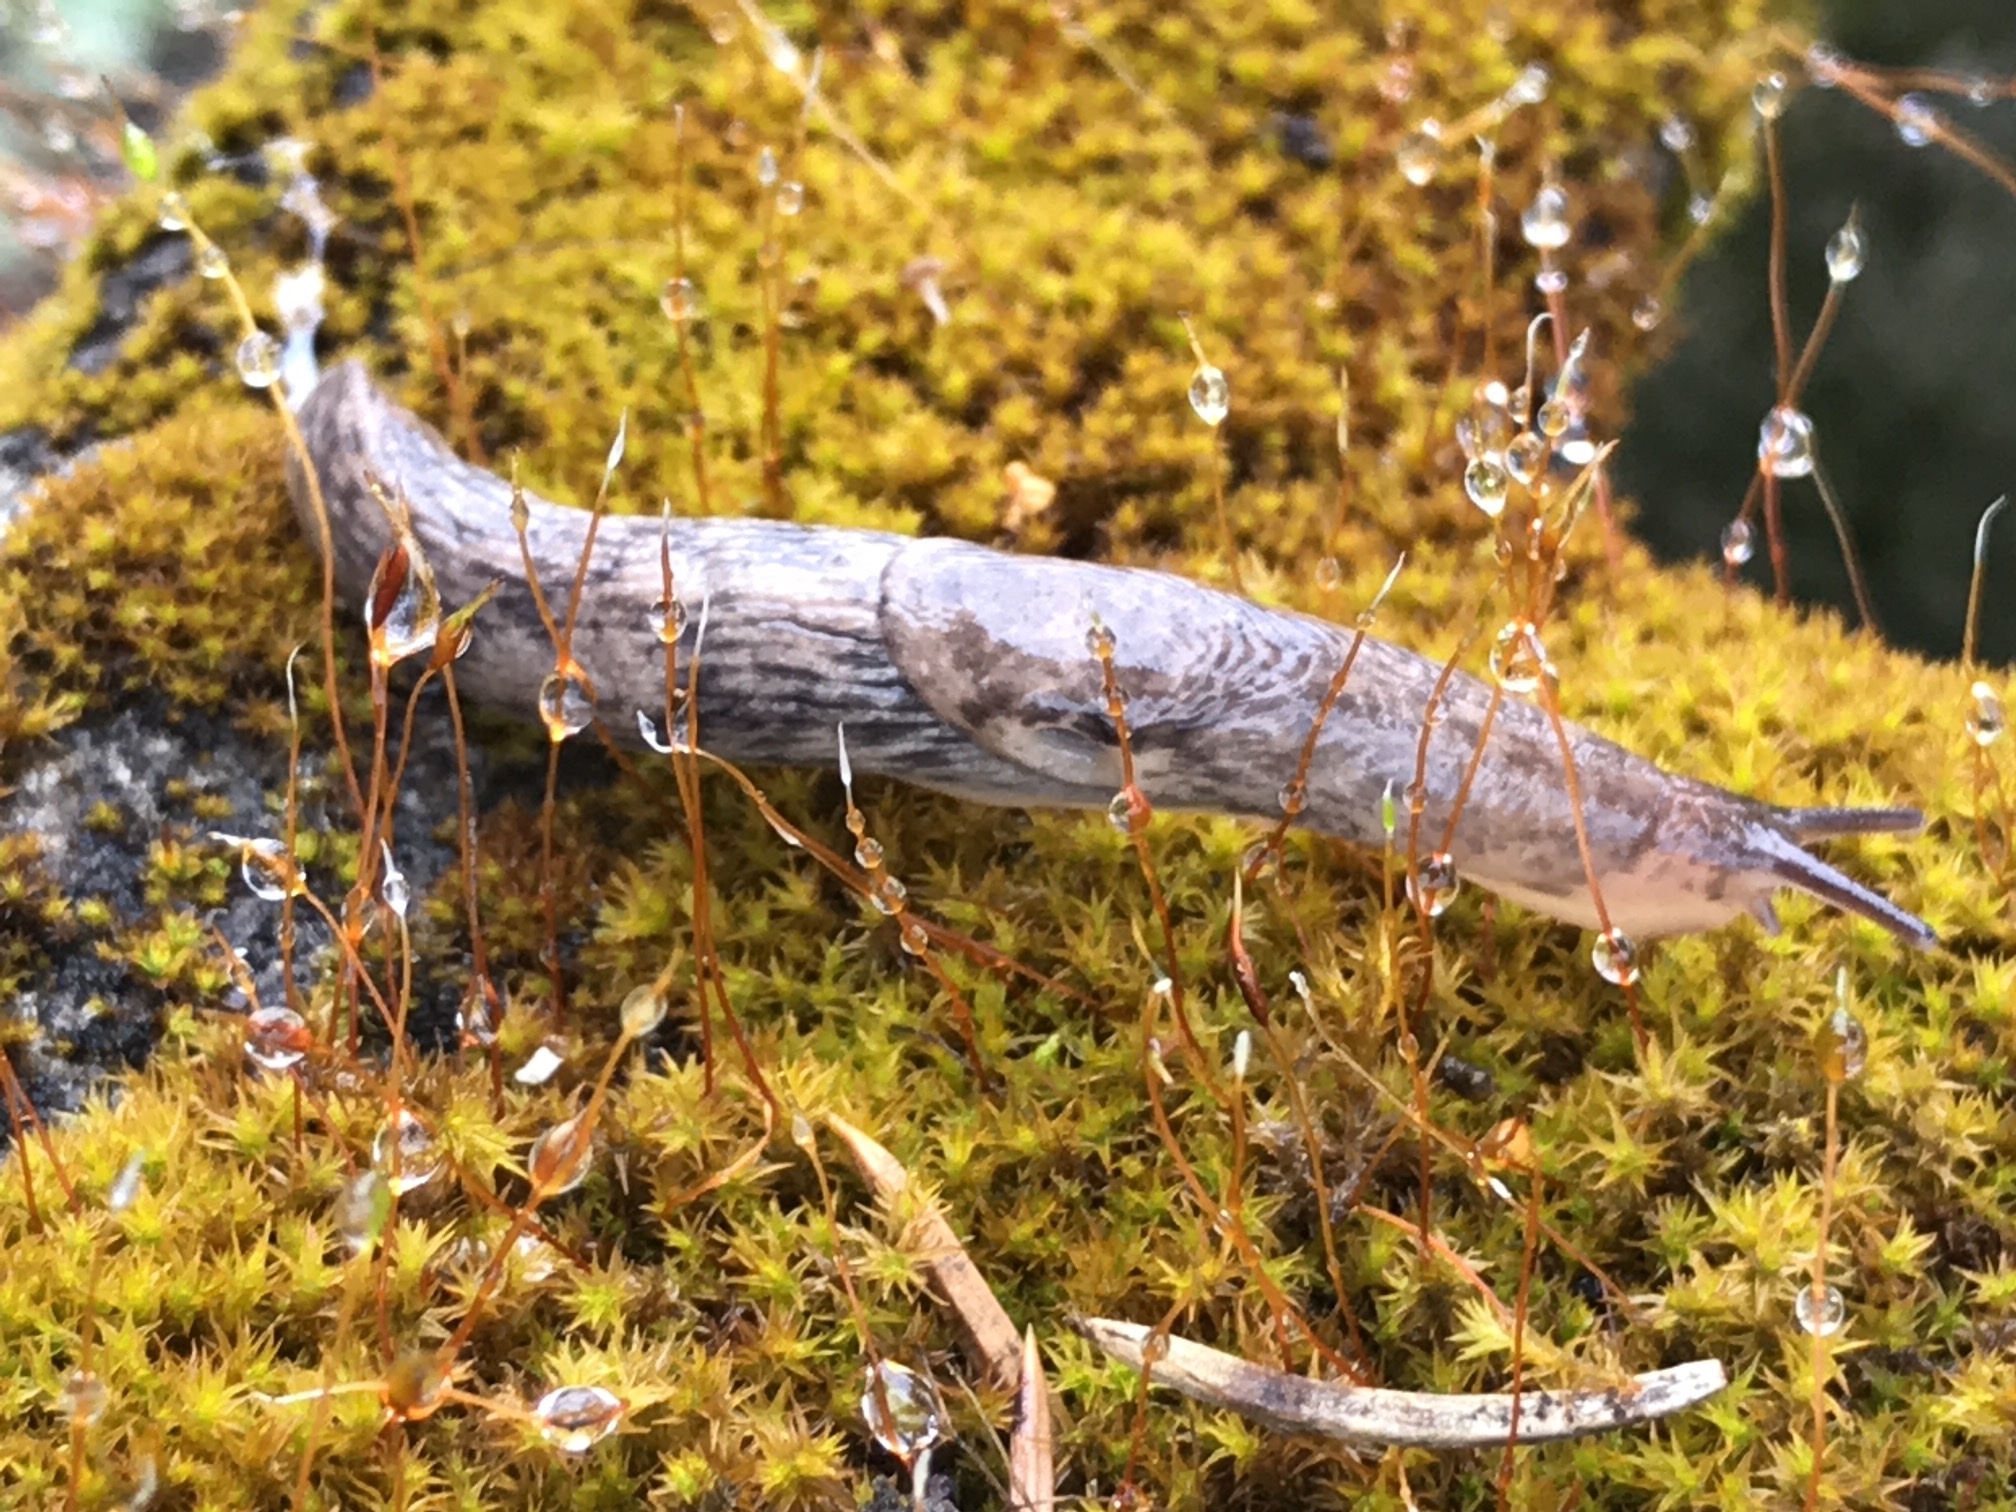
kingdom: Animalia
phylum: Mollusca
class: Gastropoda
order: Stylommatophora
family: Agriolimacidae
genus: Deroceras
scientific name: Deroceras reticulatum
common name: Gray field slug
